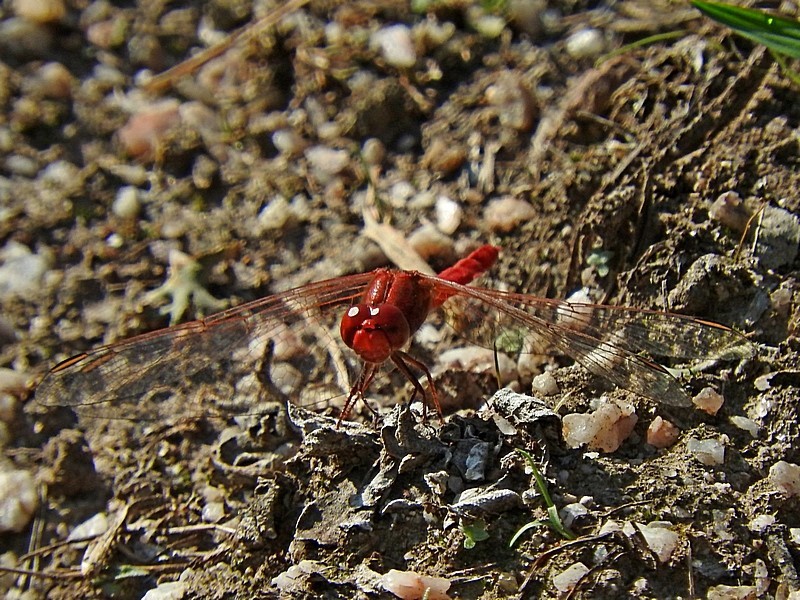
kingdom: Animalia
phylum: Arthropoda
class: Insecta
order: Odonata
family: Libellulidae
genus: Diplacodes
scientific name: Diplacodes haematodes
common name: Scarlet percher
